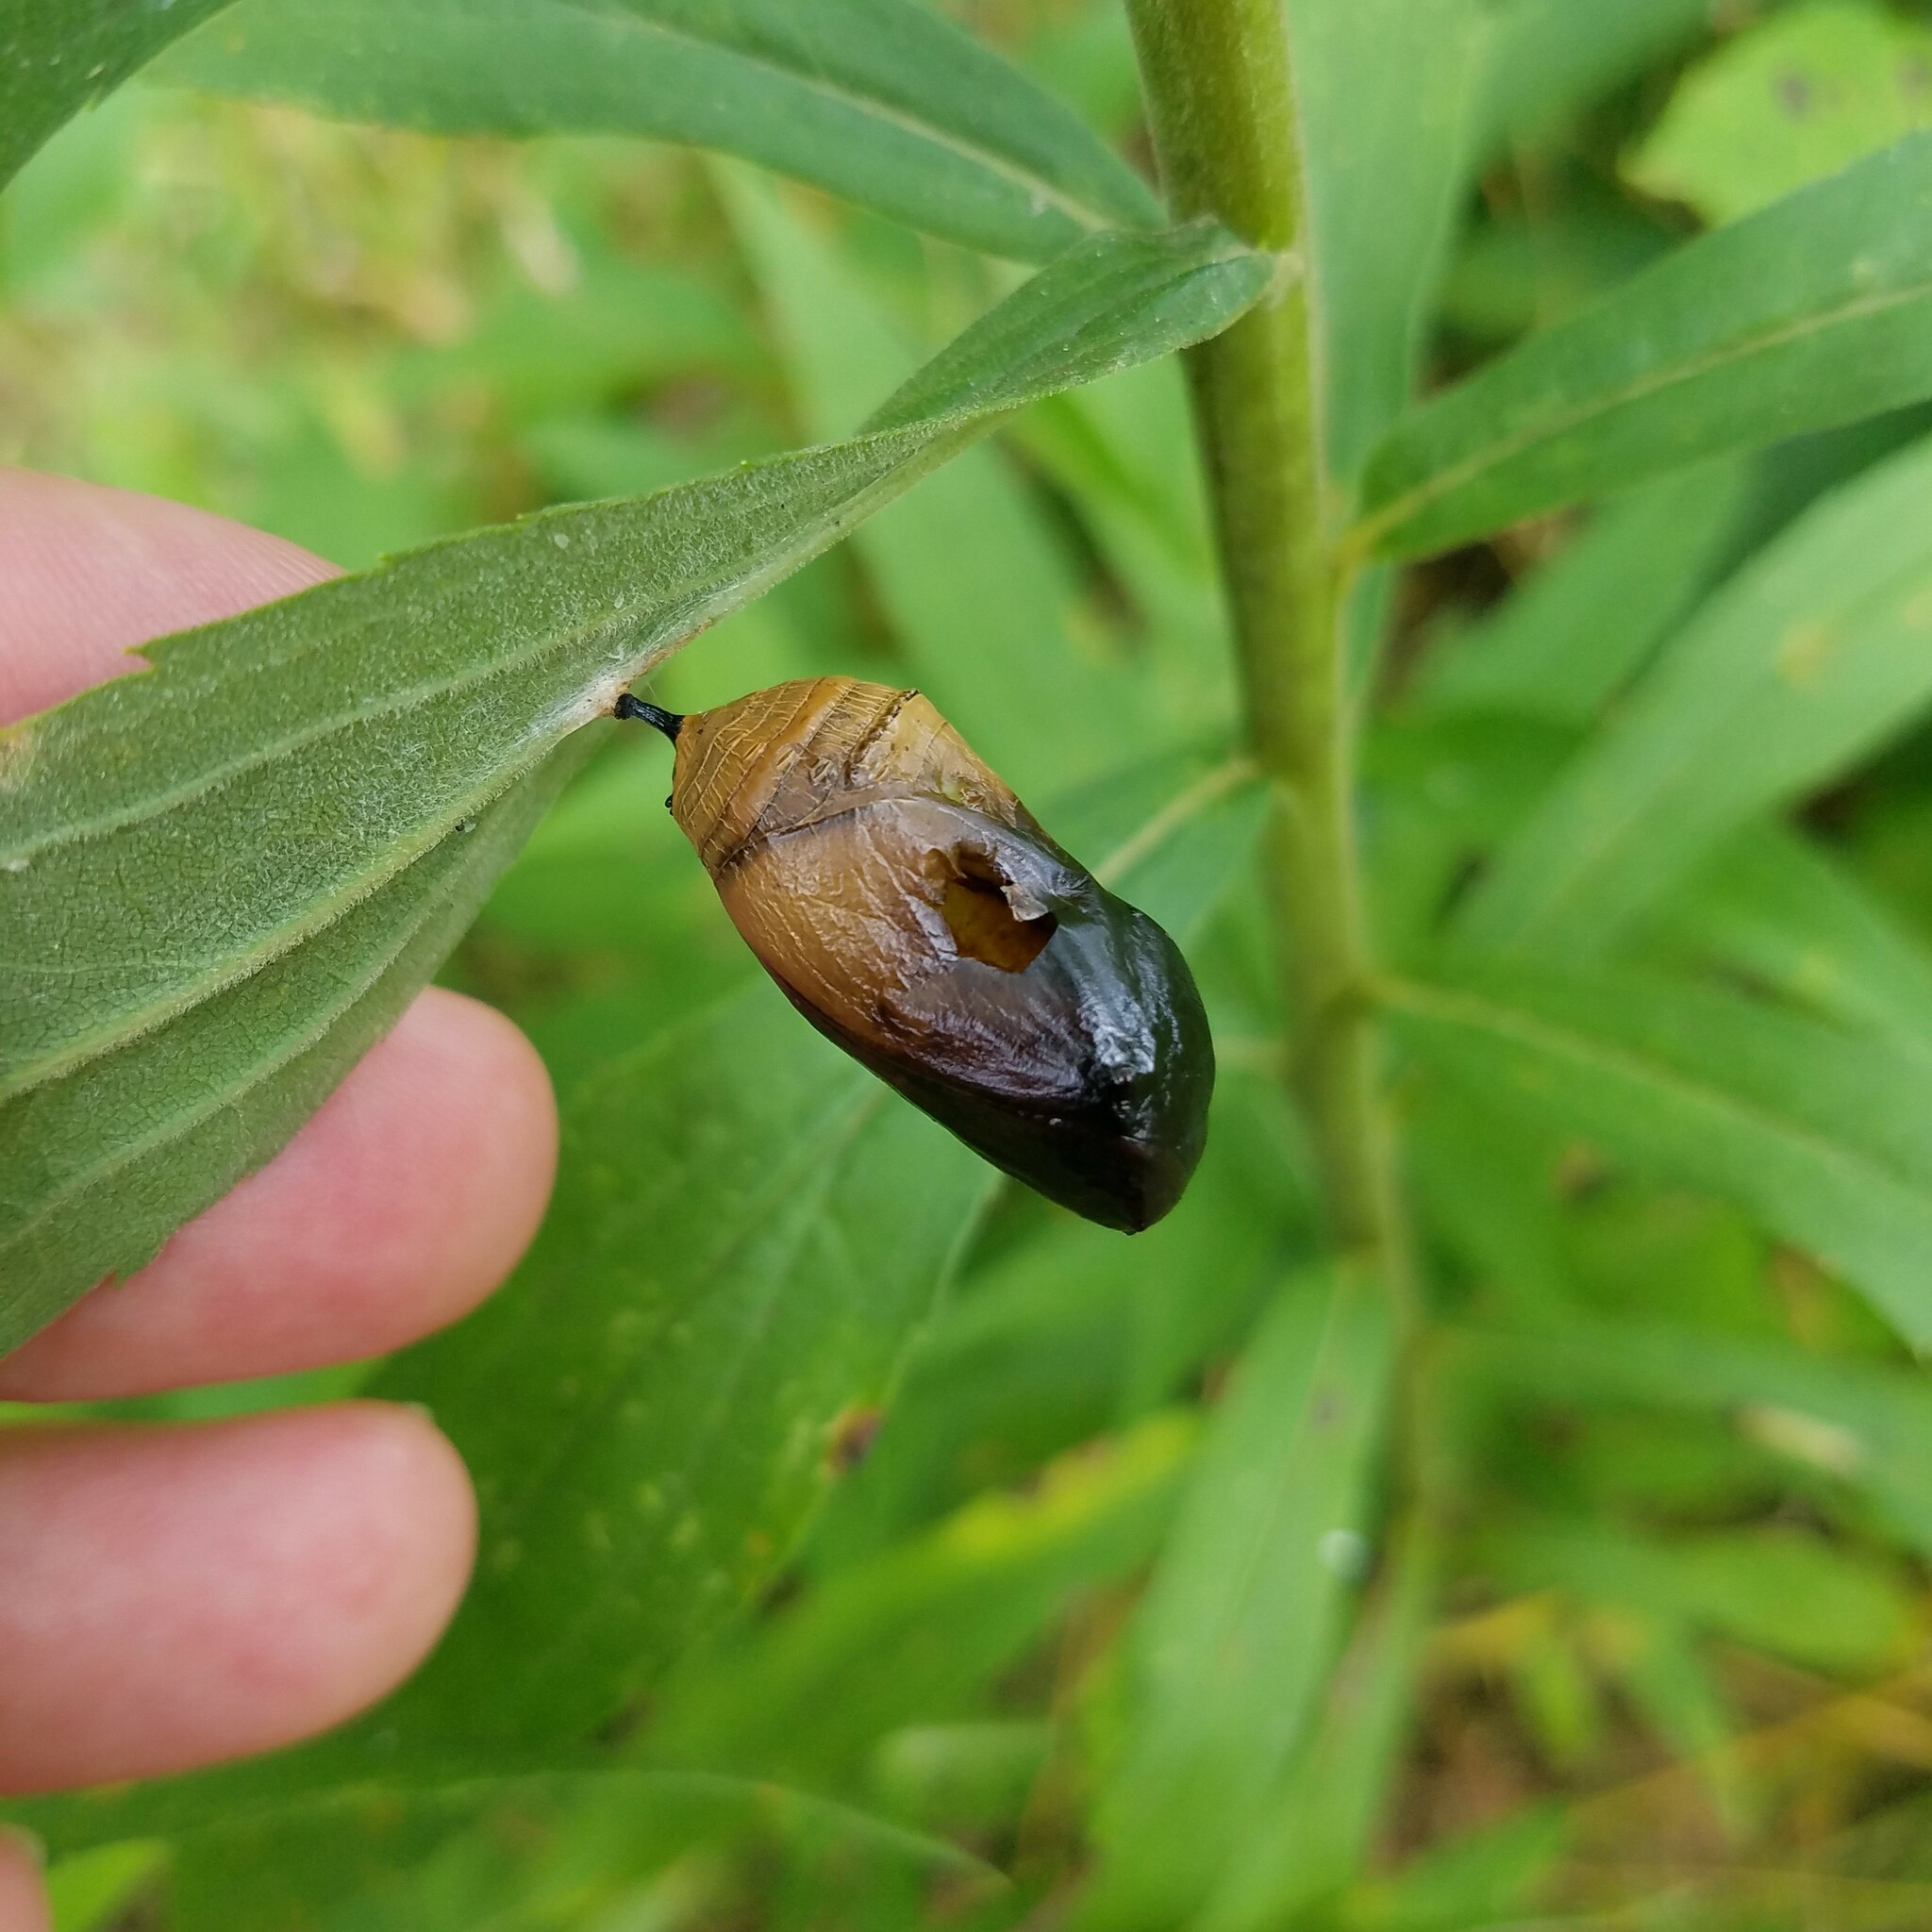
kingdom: Animalia
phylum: Arthropoda
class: Insecta
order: Lepidoptera
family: Nymphalidae
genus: Danaus
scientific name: Danaus plexippus
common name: Monarch
